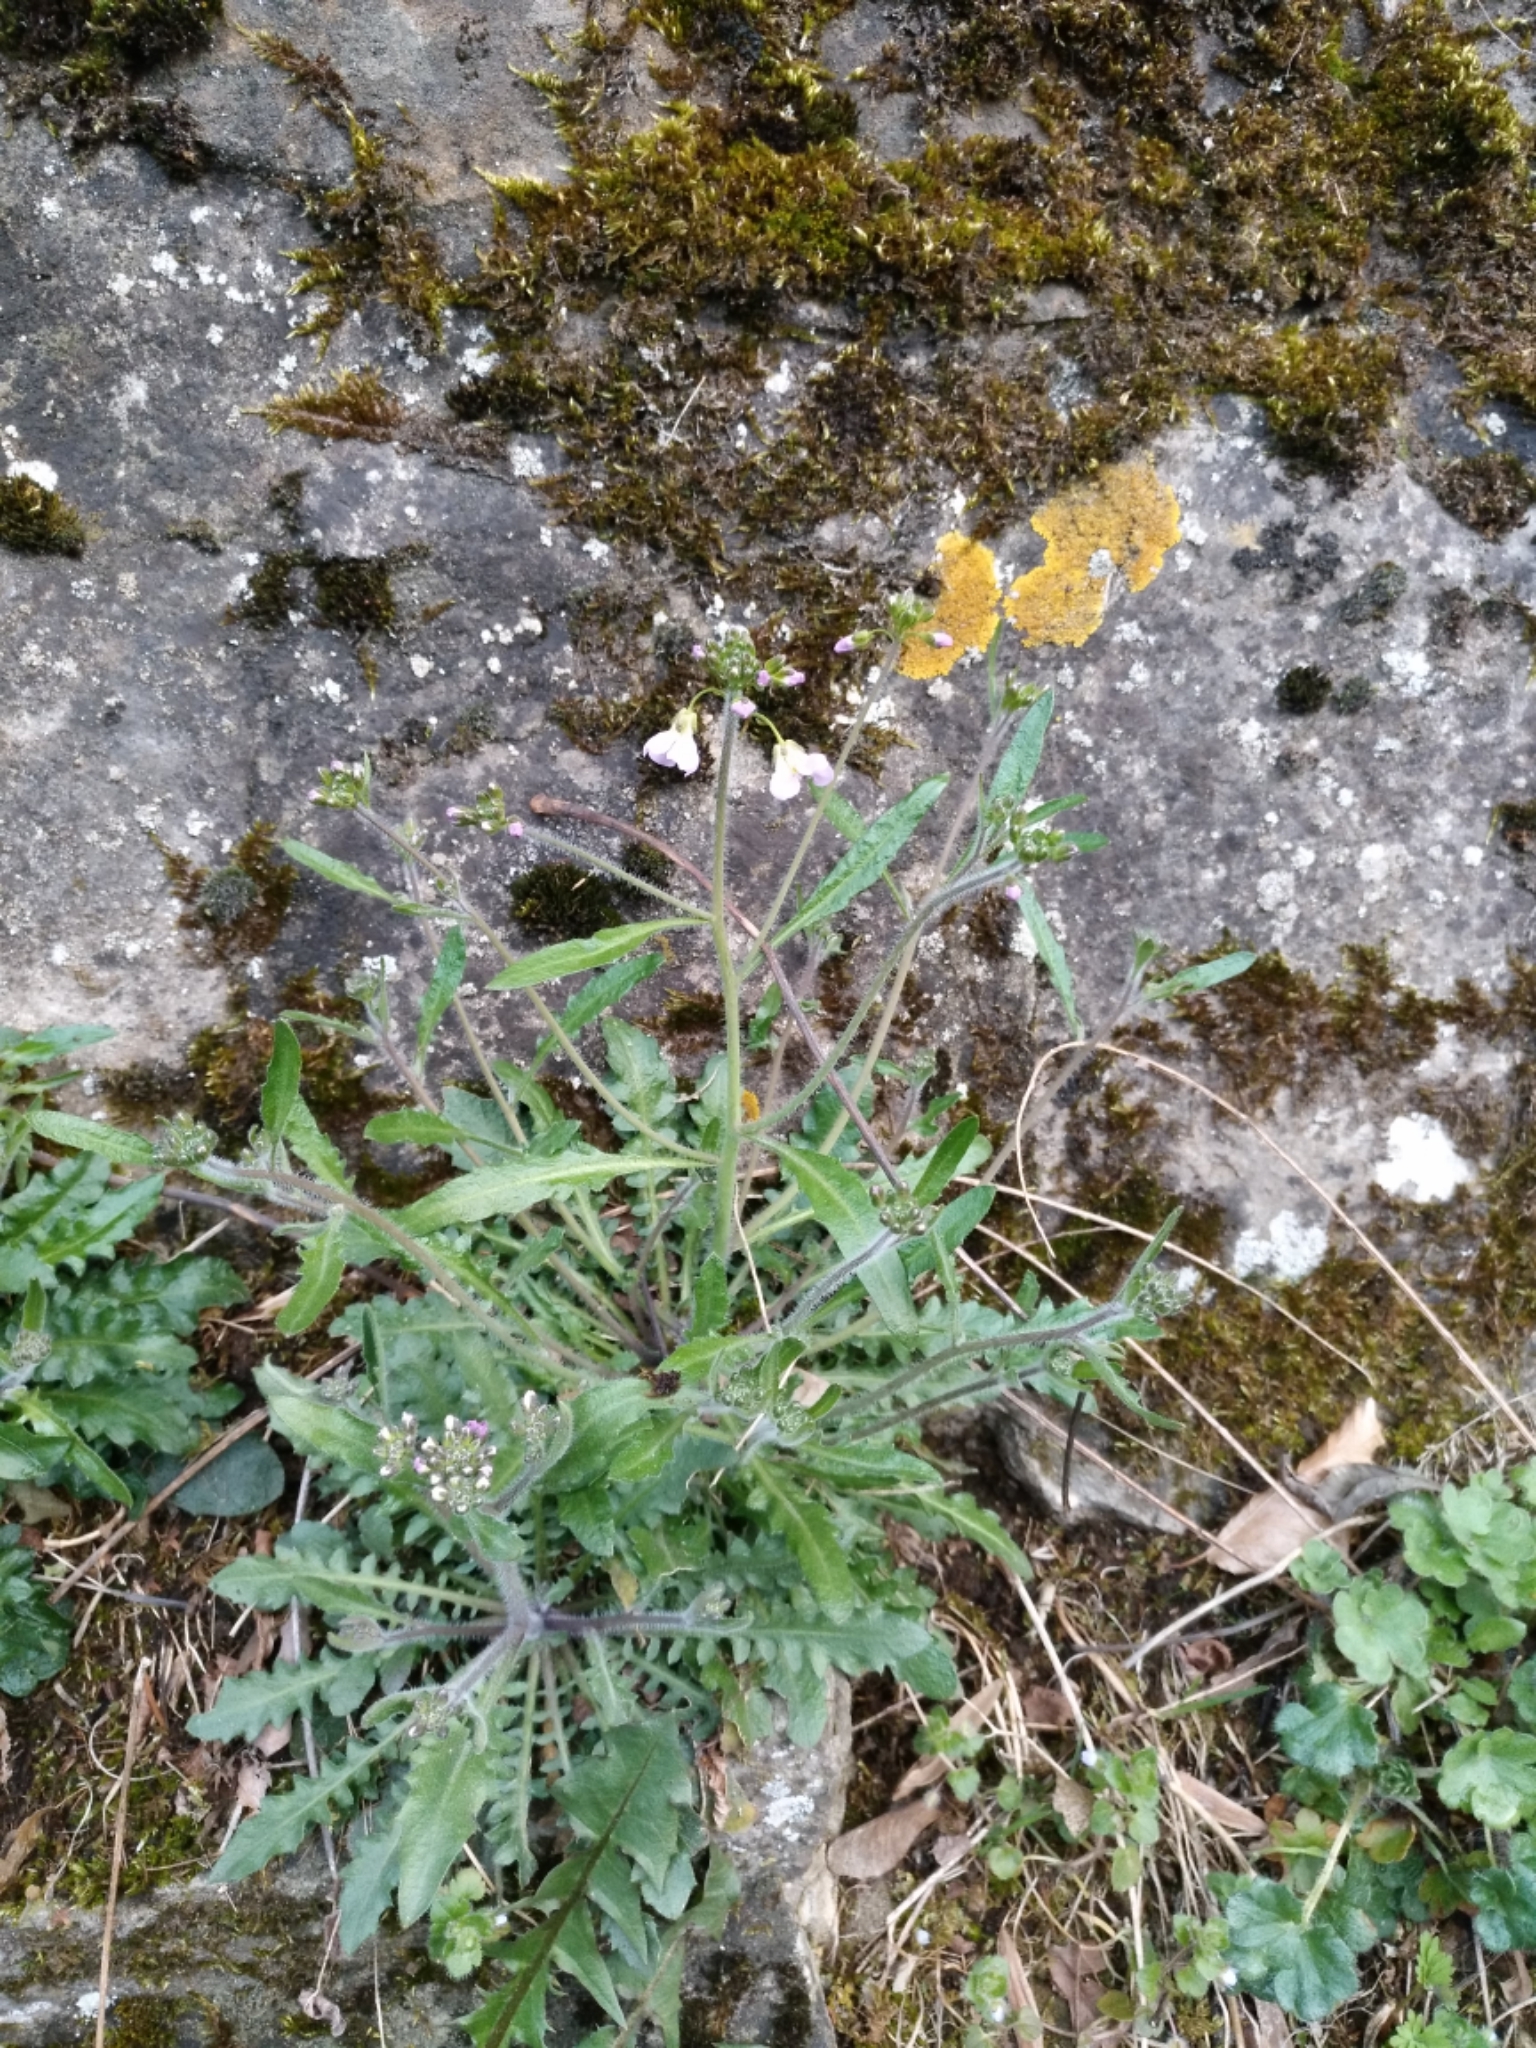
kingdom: Plantae
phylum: Tracheophyta
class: Magnoliopsida
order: Brassicales
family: Brassicaceae
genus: Arabidopsis
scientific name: Arabidopsis arenosa
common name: Sand rock-cress
